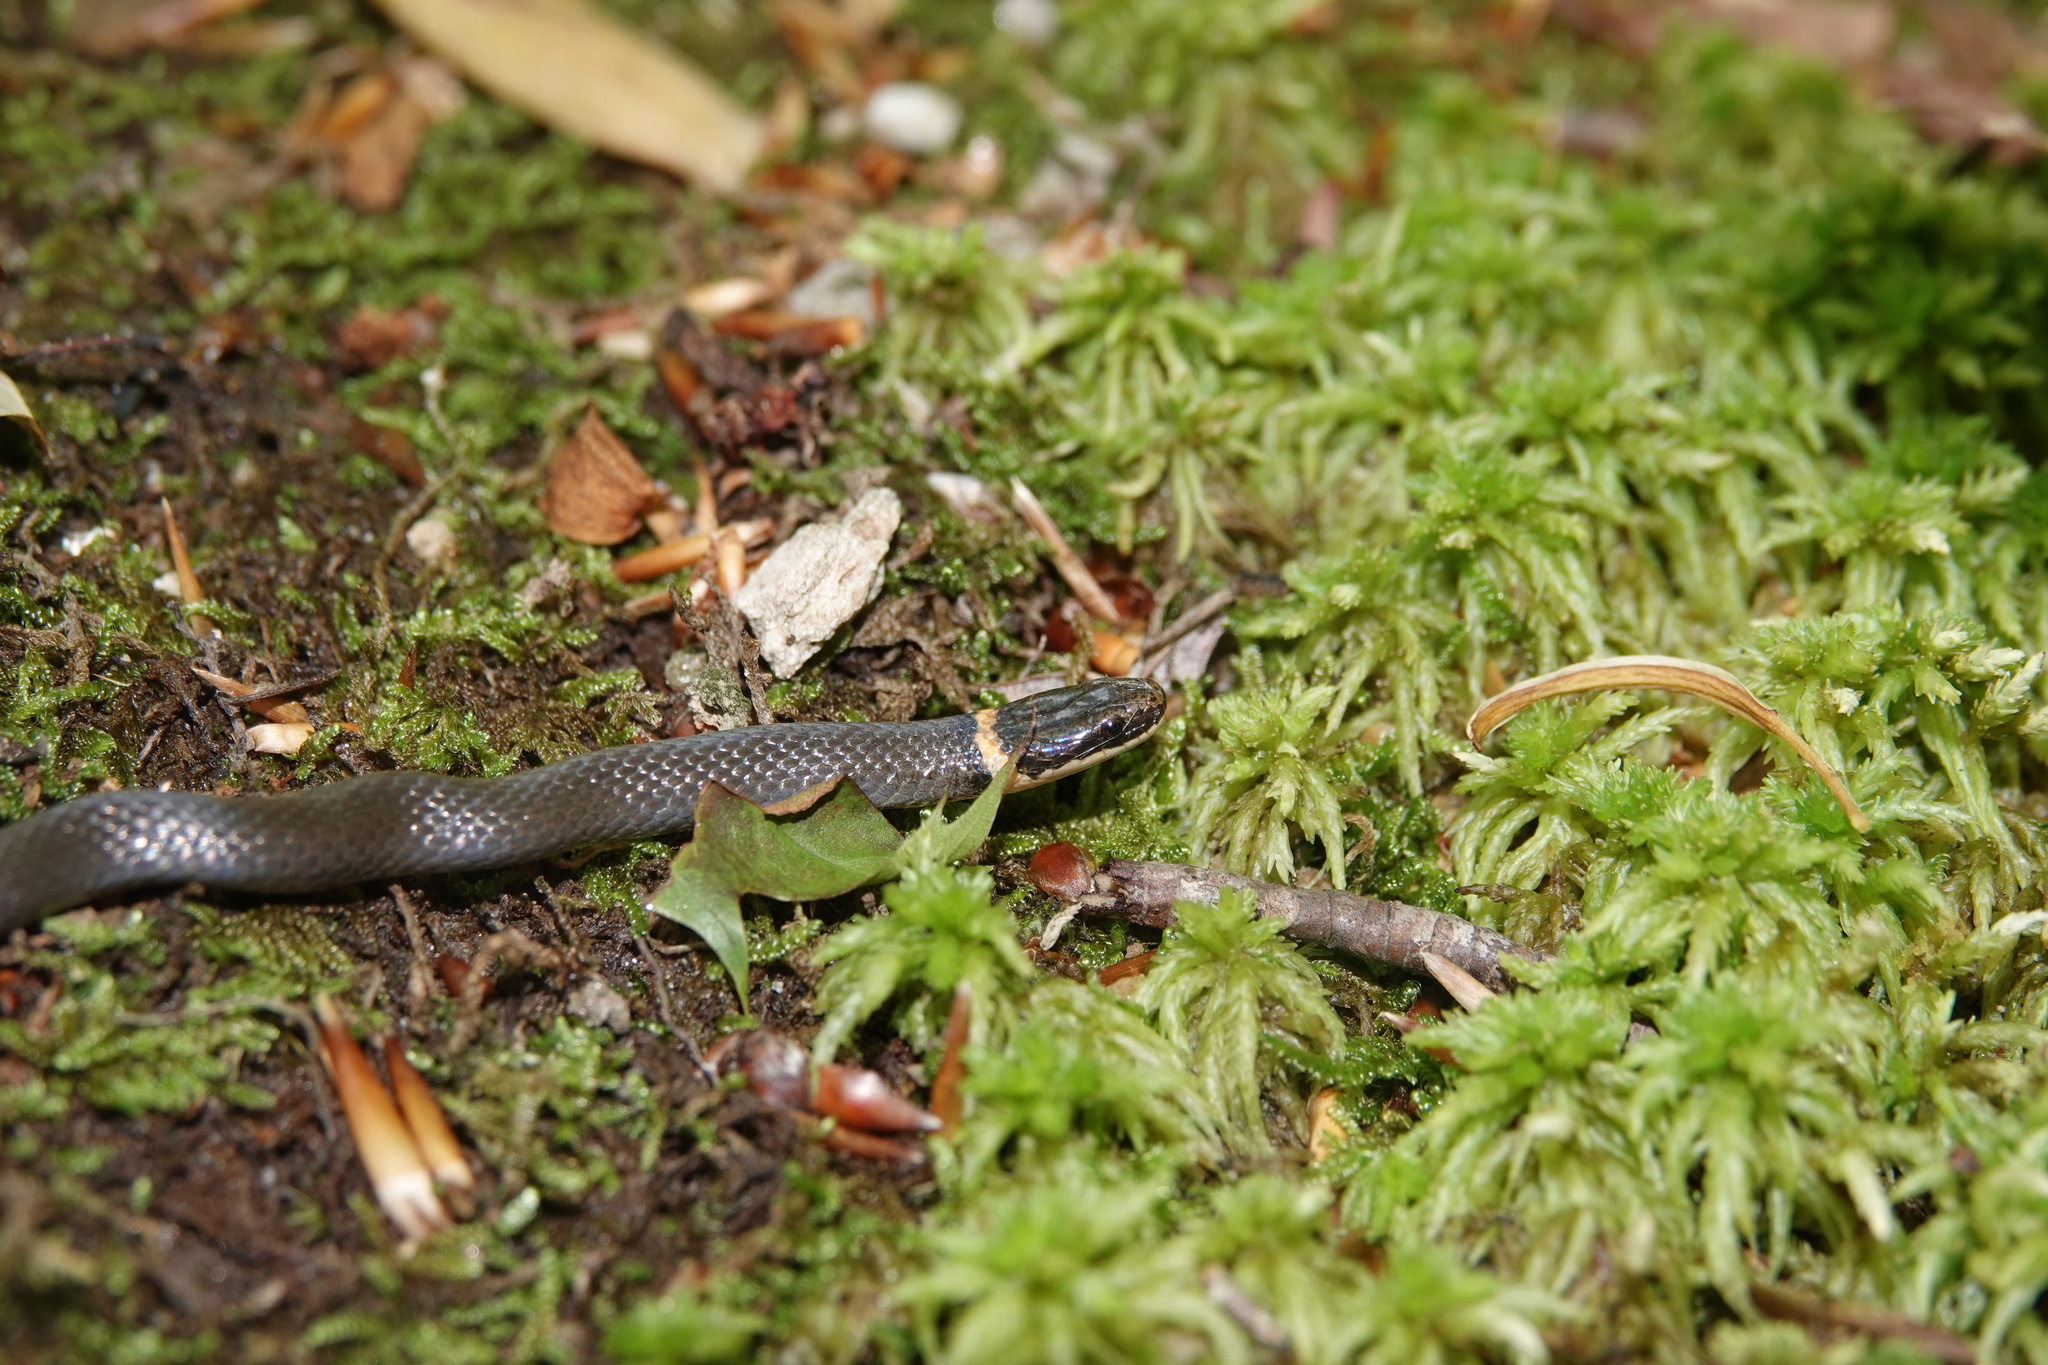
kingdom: Animalia
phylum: Chordata
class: Squamata
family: Colubridae
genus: Diadophis
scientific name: Diadophis punctatus
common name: Ringneck snake
